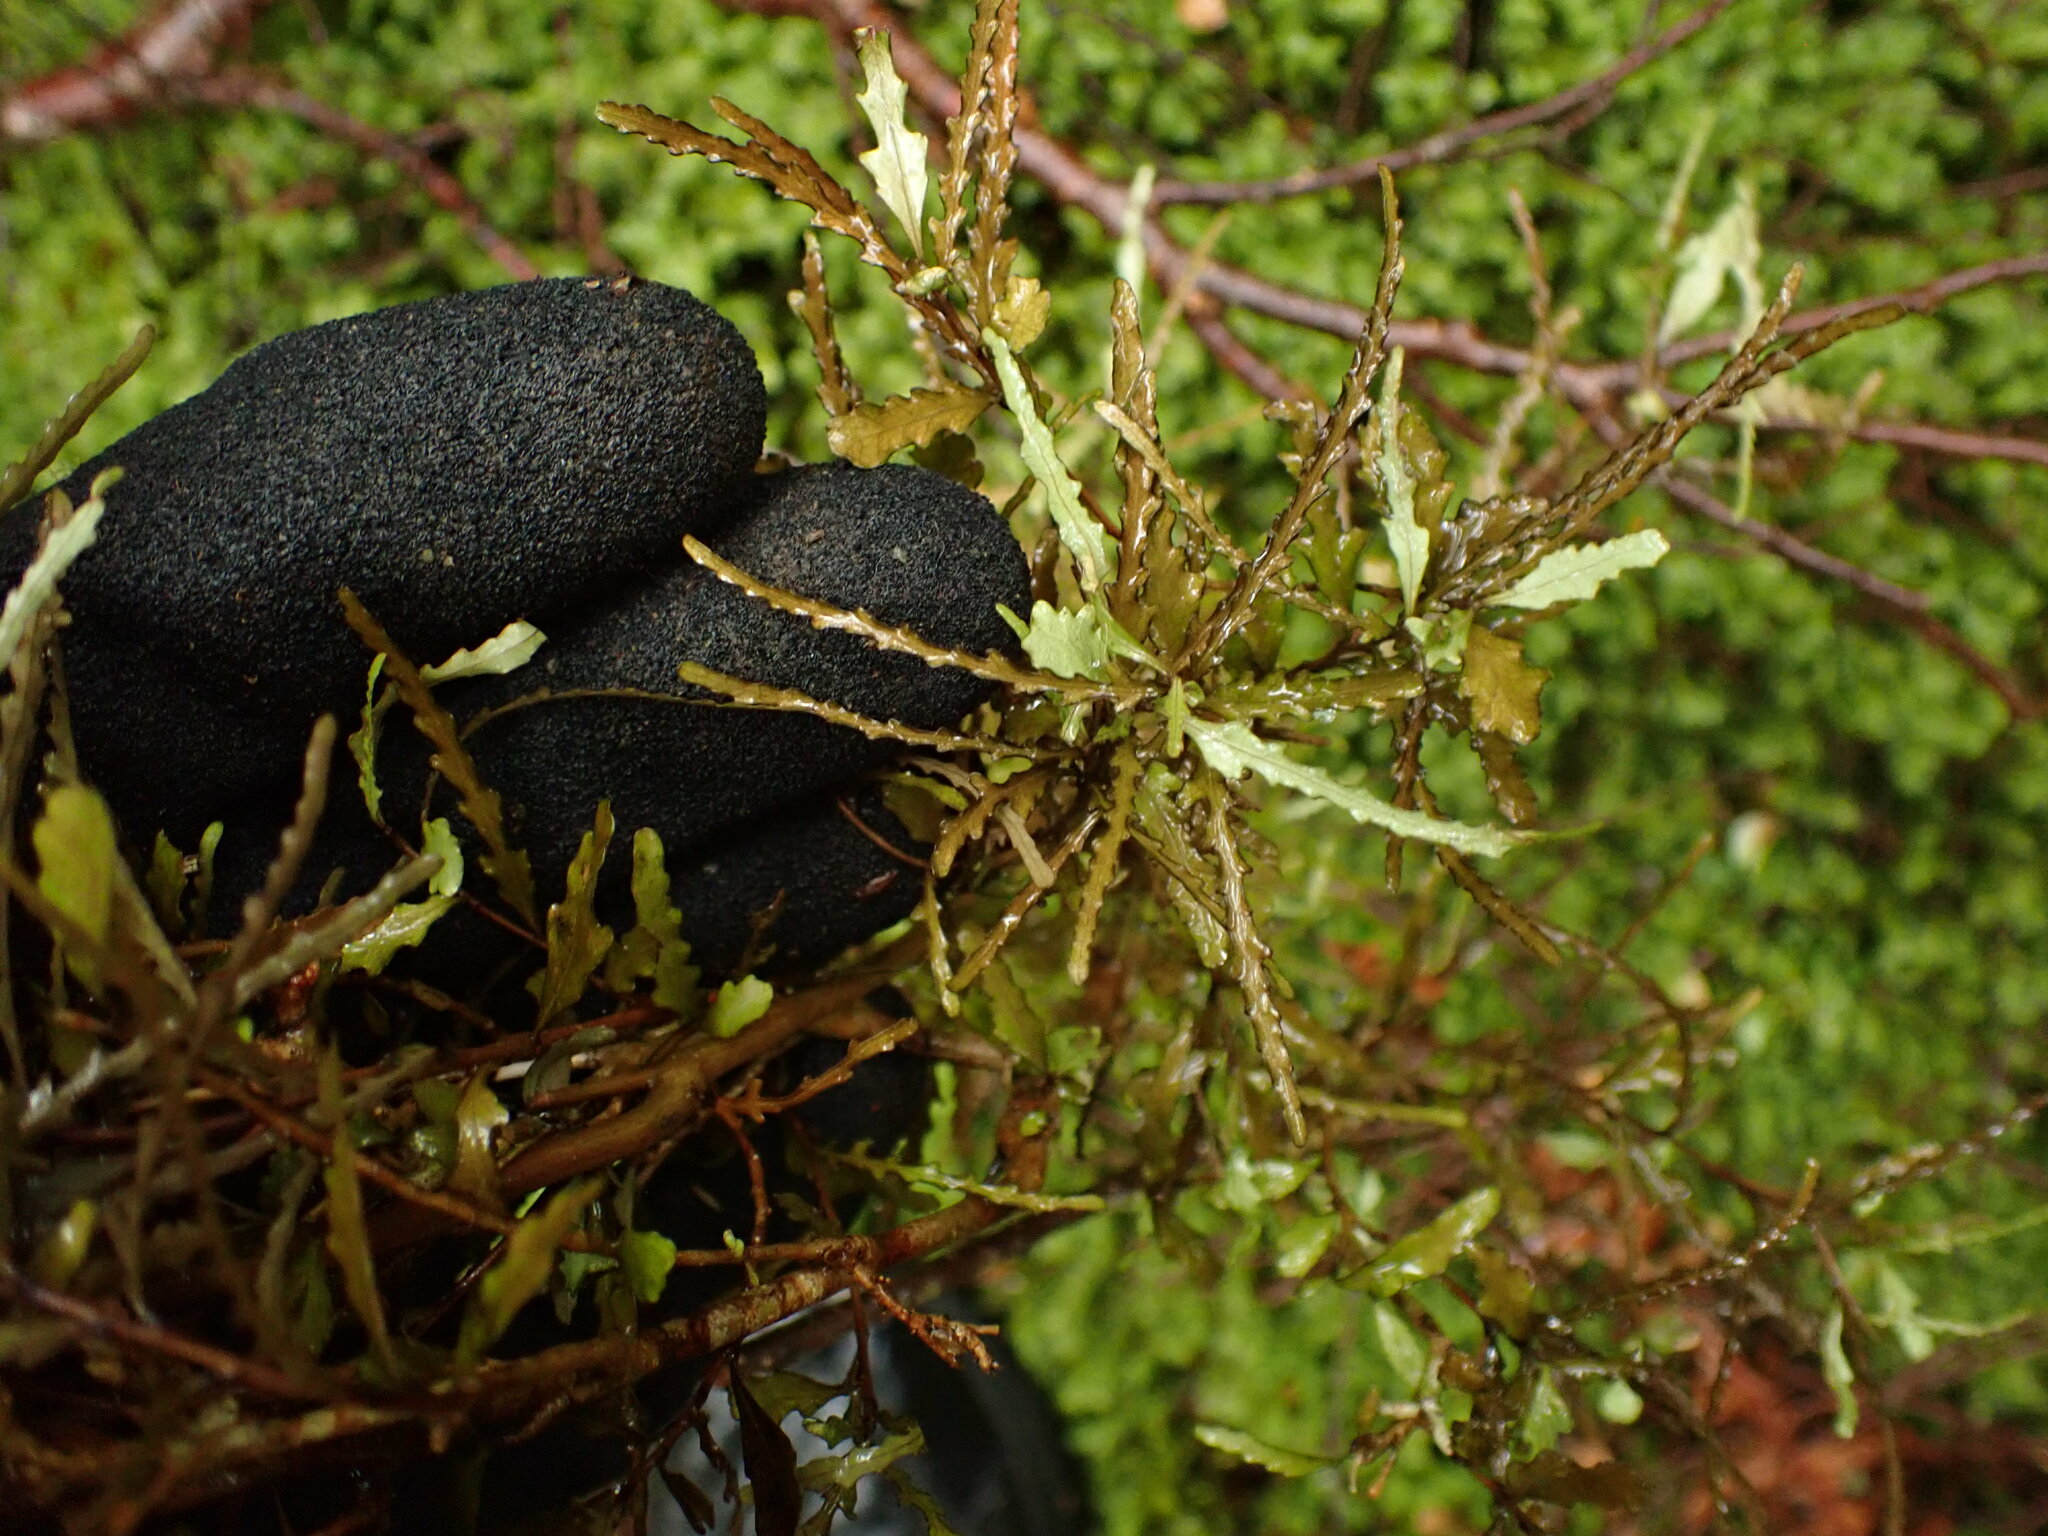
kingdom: Plantae
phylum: Tracheophyta
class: Magnoliopsida
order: Oxalidales
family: Elaeocarpaceae
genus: Elaeocarpus
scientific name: Elaeocarpus hookerianus
